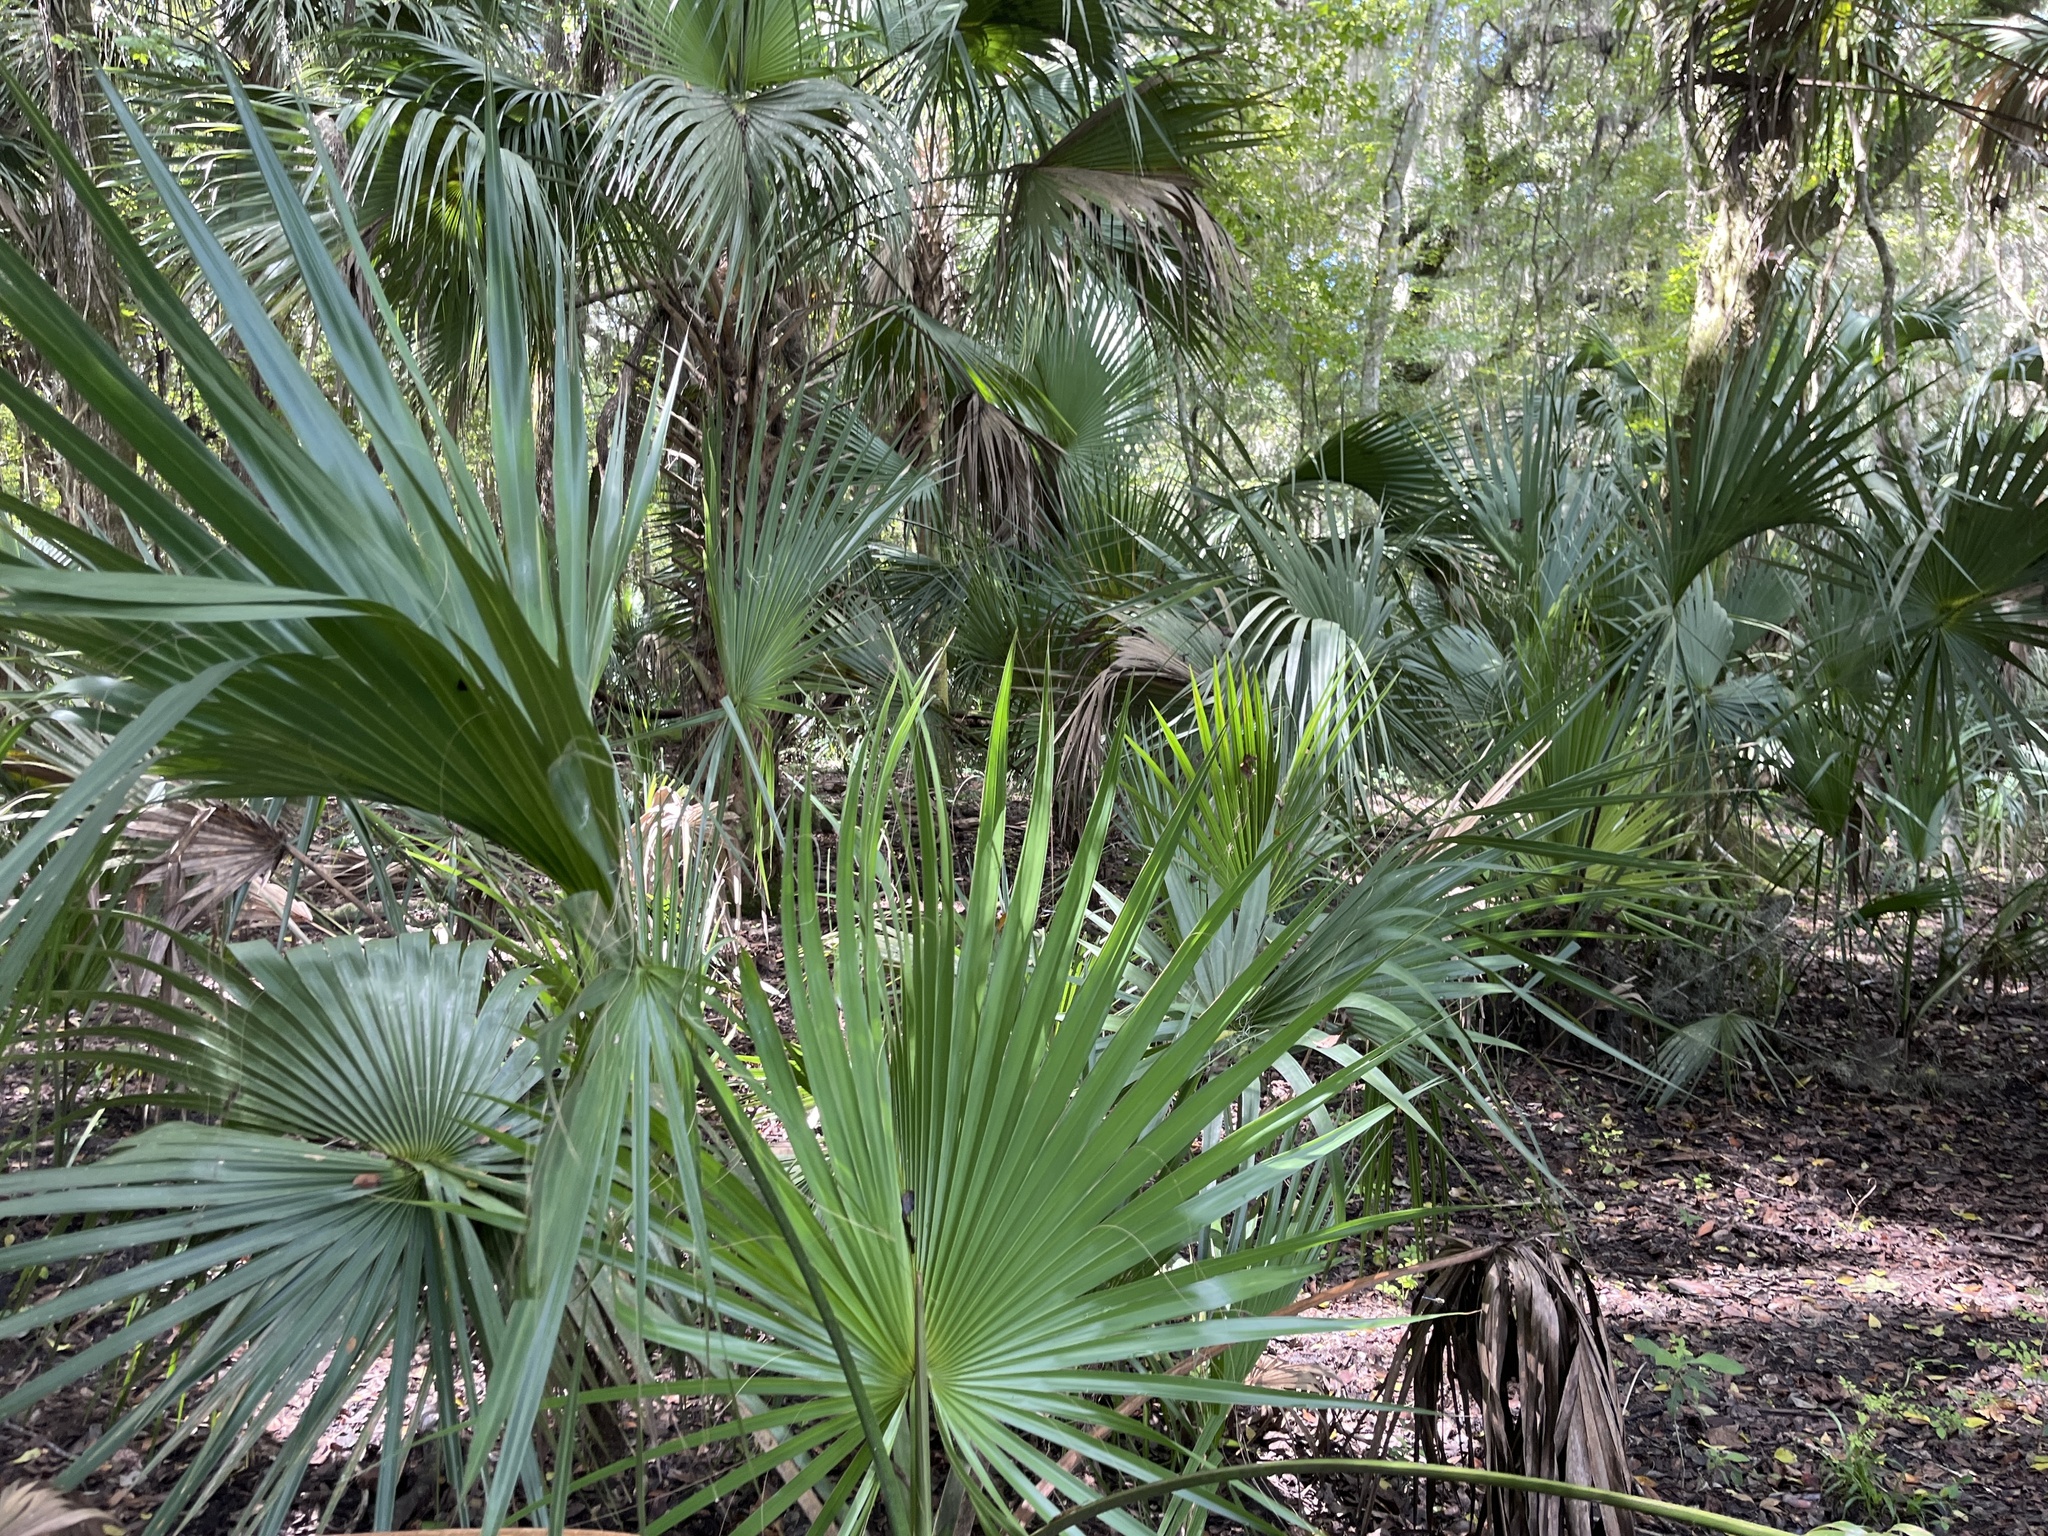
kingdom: Plantae
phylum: Tracheophyta
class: Liliopsida
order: Arecales
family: Arecaceae
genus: Sabal
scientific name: Sabal palmetto
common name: Blue palmetto
